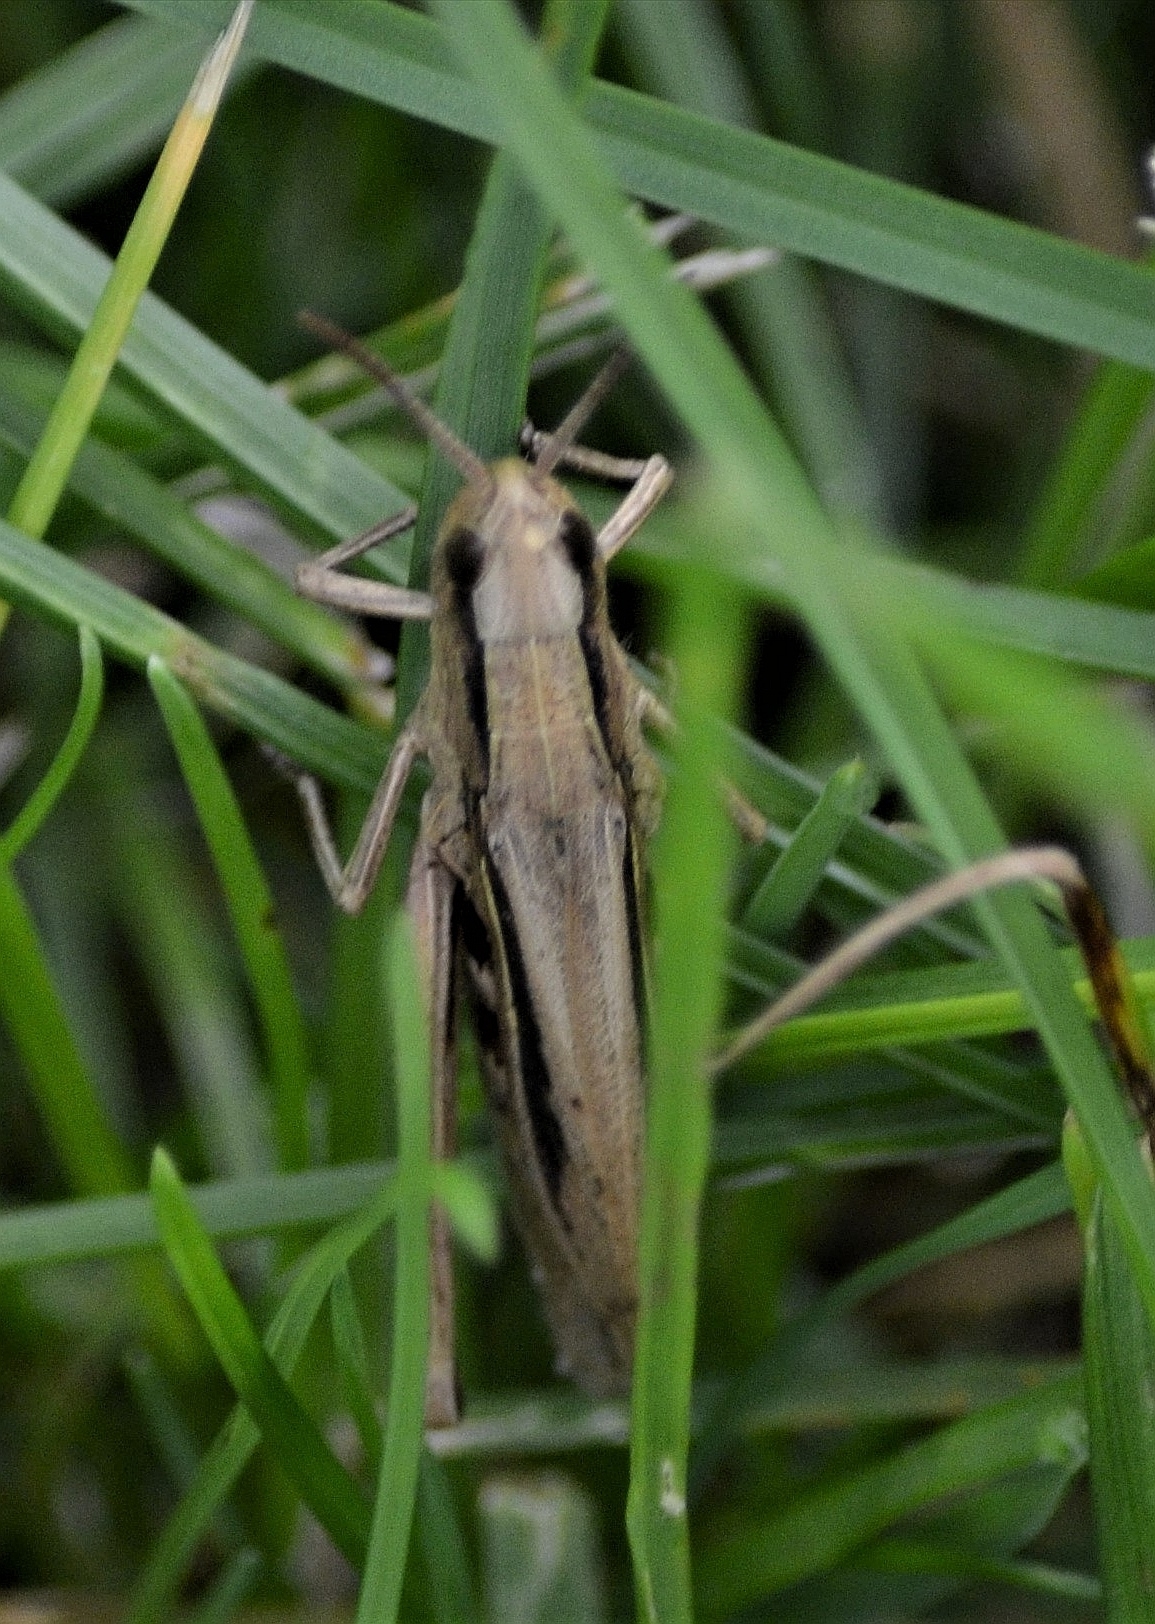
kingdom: Animalia
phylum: Arthropoda
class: Insecta
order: Orthoptera
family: Acrididae
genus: Chorthippus
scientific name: Chorthippus albomarginatus
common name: Lesser marsh grasshopper
